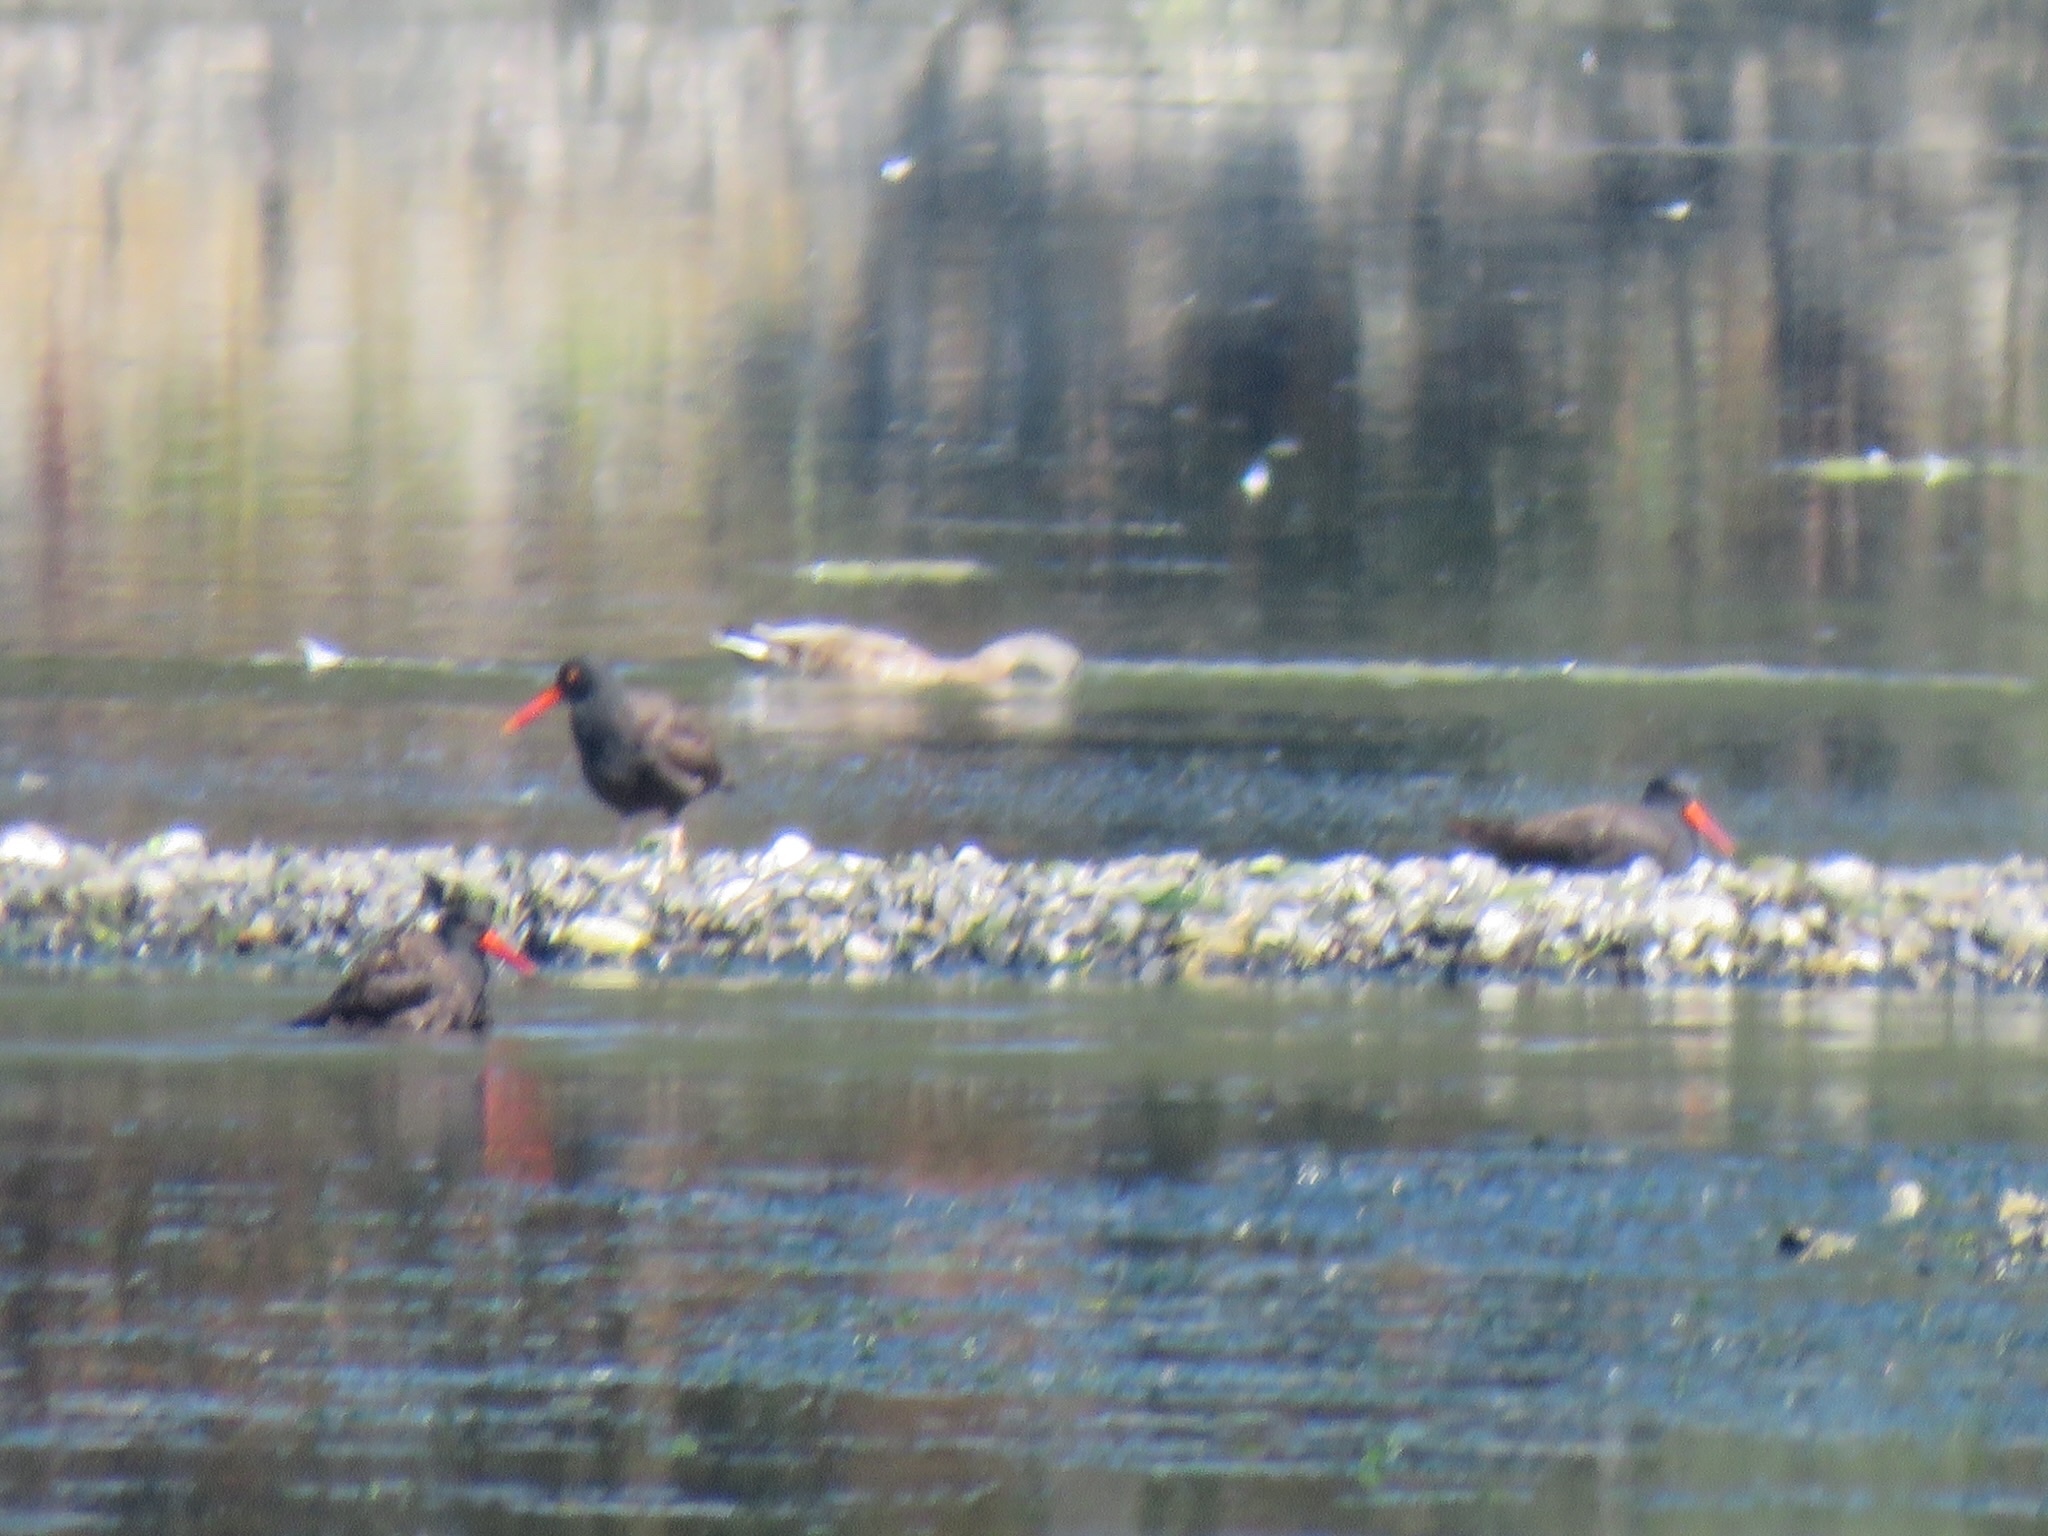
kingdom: Animalia
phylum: Chordata
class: Aves
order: Charadriiformes
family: Haematopodidae
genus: Haematopus
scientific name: Haematopus bachmani
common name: Black oystercatcher
